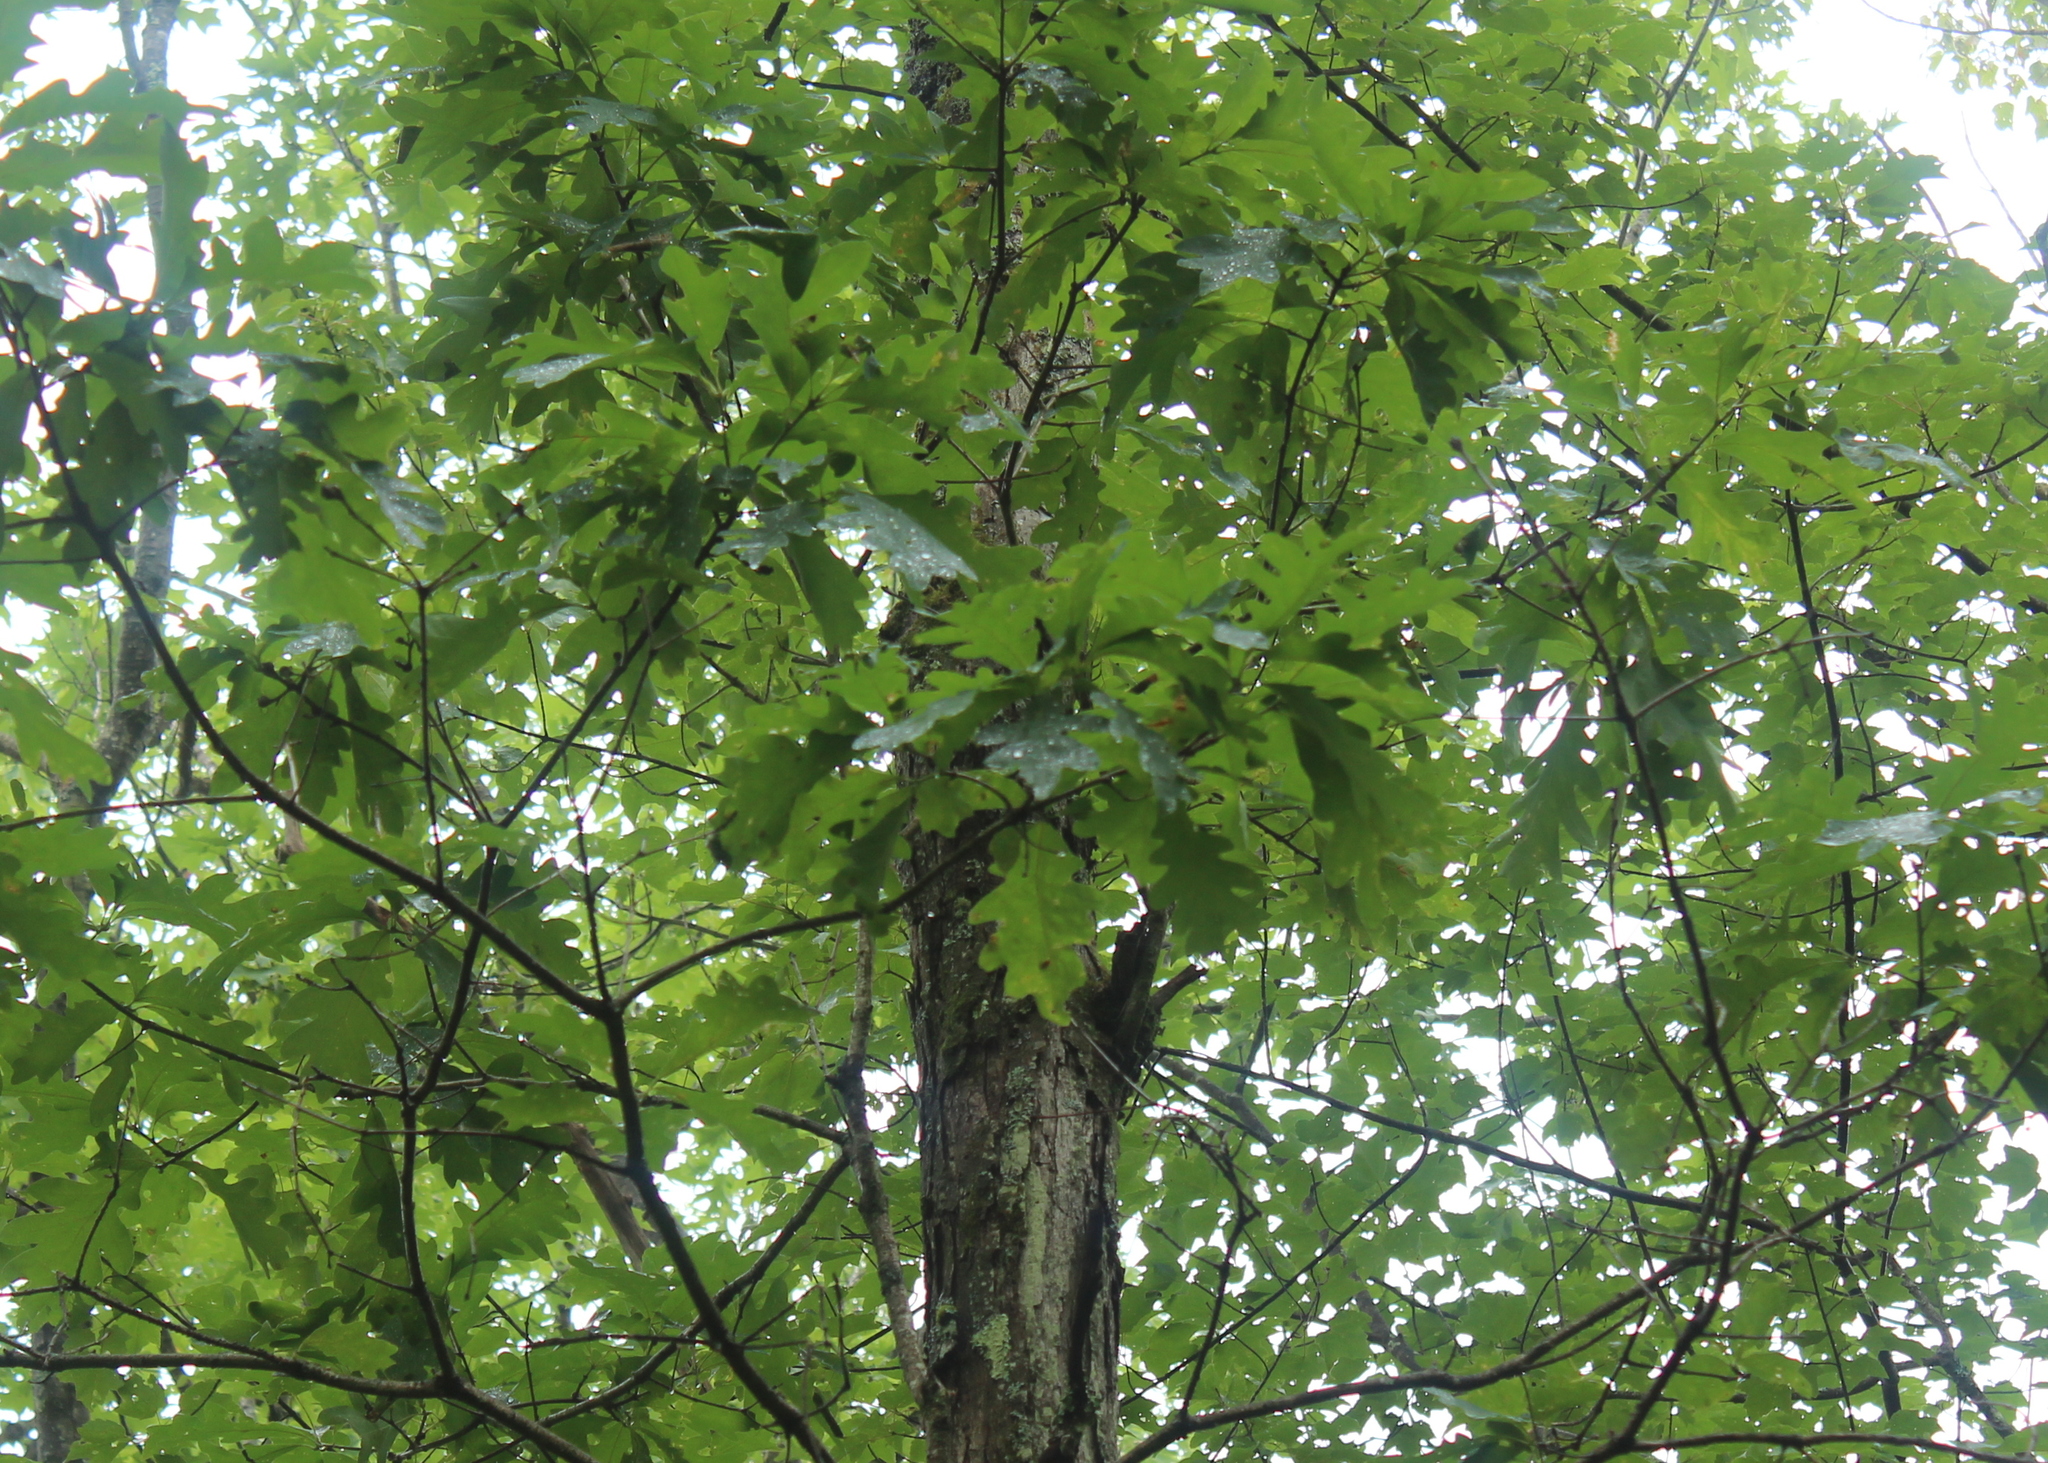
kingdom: Plantae
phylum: Tracheophyta
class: Magnoliopsida
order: Fagales
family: Fagaceae
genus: Quercus
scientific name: Quercus alba
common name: White oak
